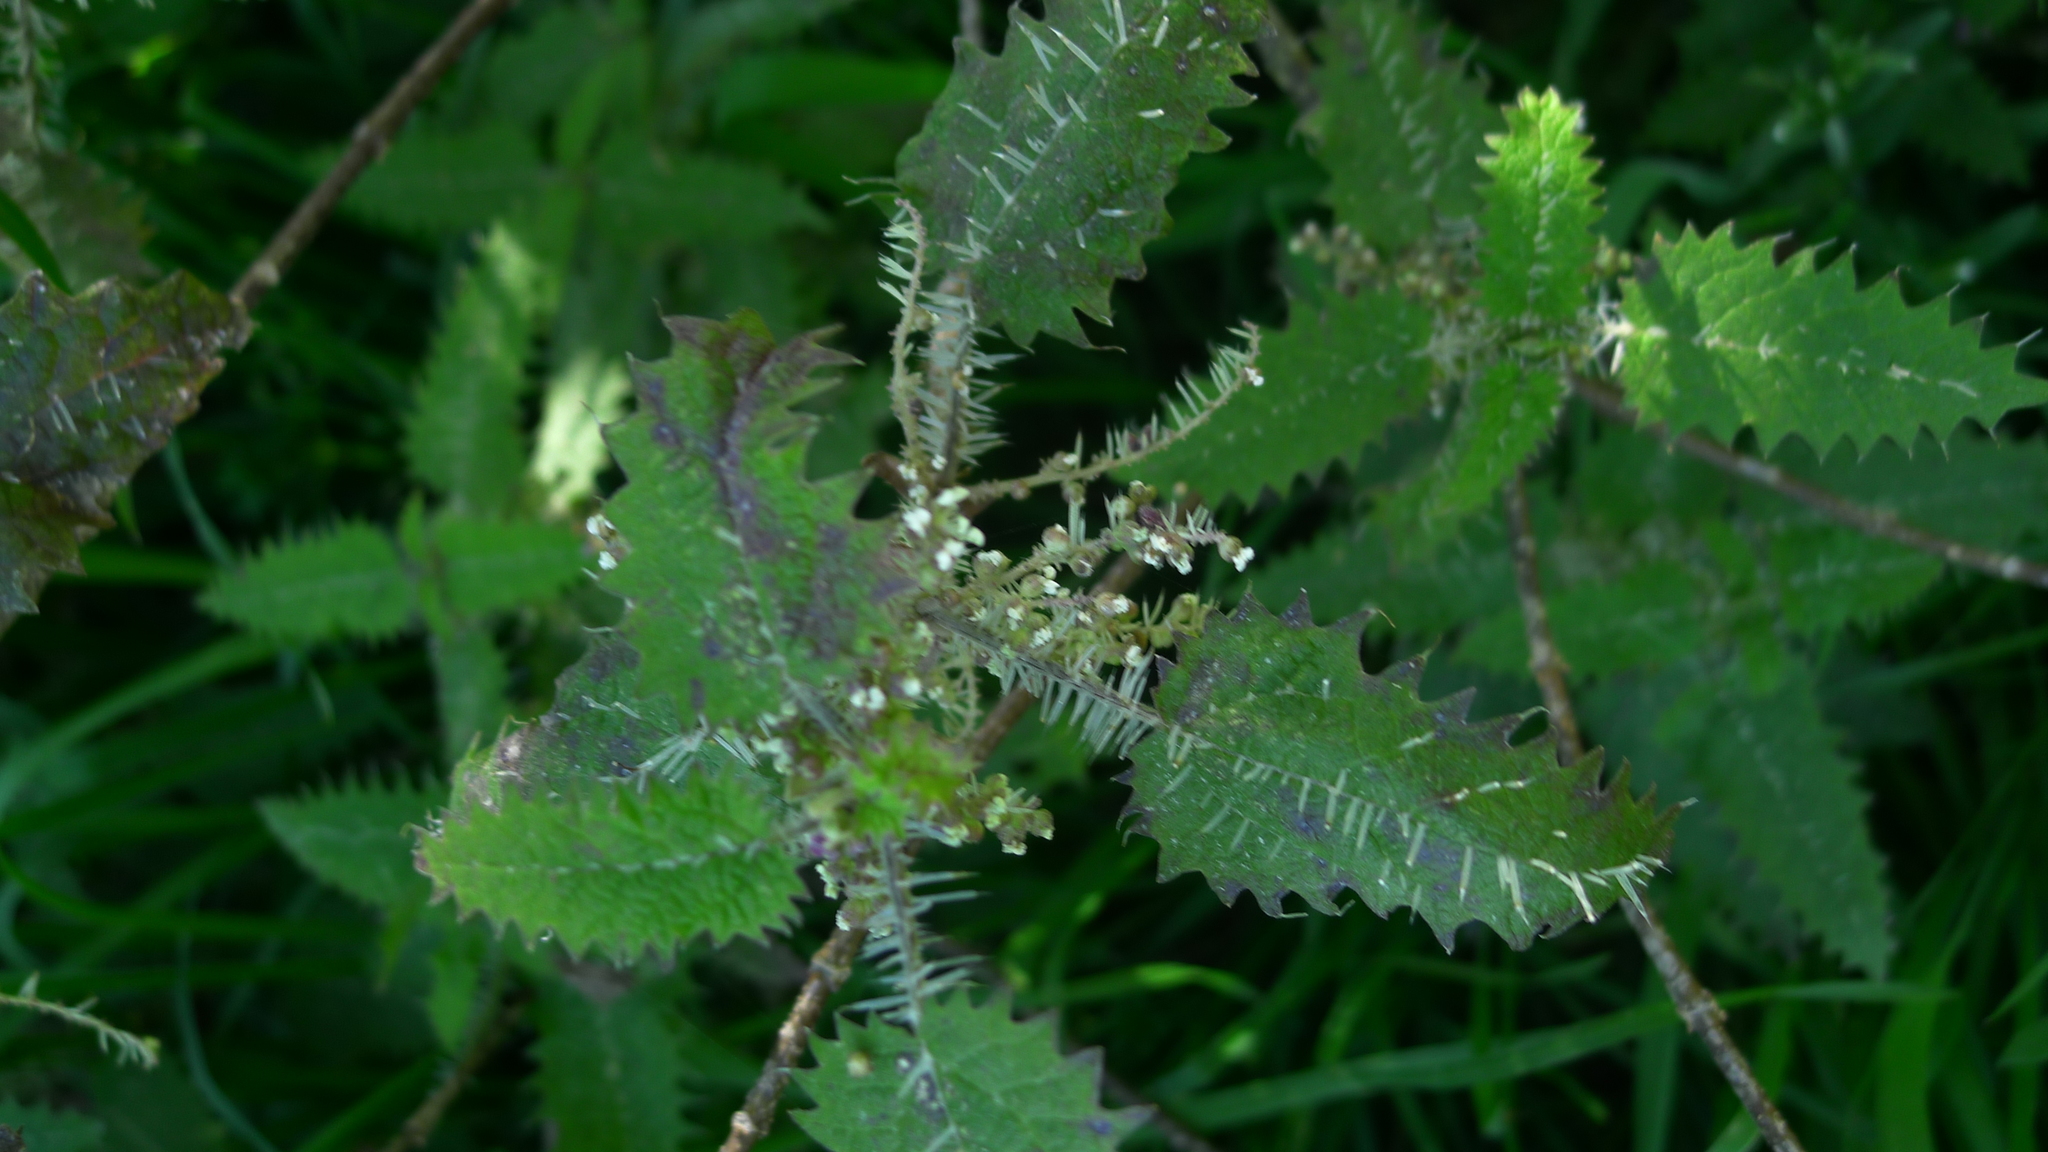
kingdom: Plantae
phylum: Tracheophyta
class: Magnoliopsida
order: Rosales
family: Urticaceae
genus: Urtica
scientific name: Urtica ferox
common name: Tree nettle
